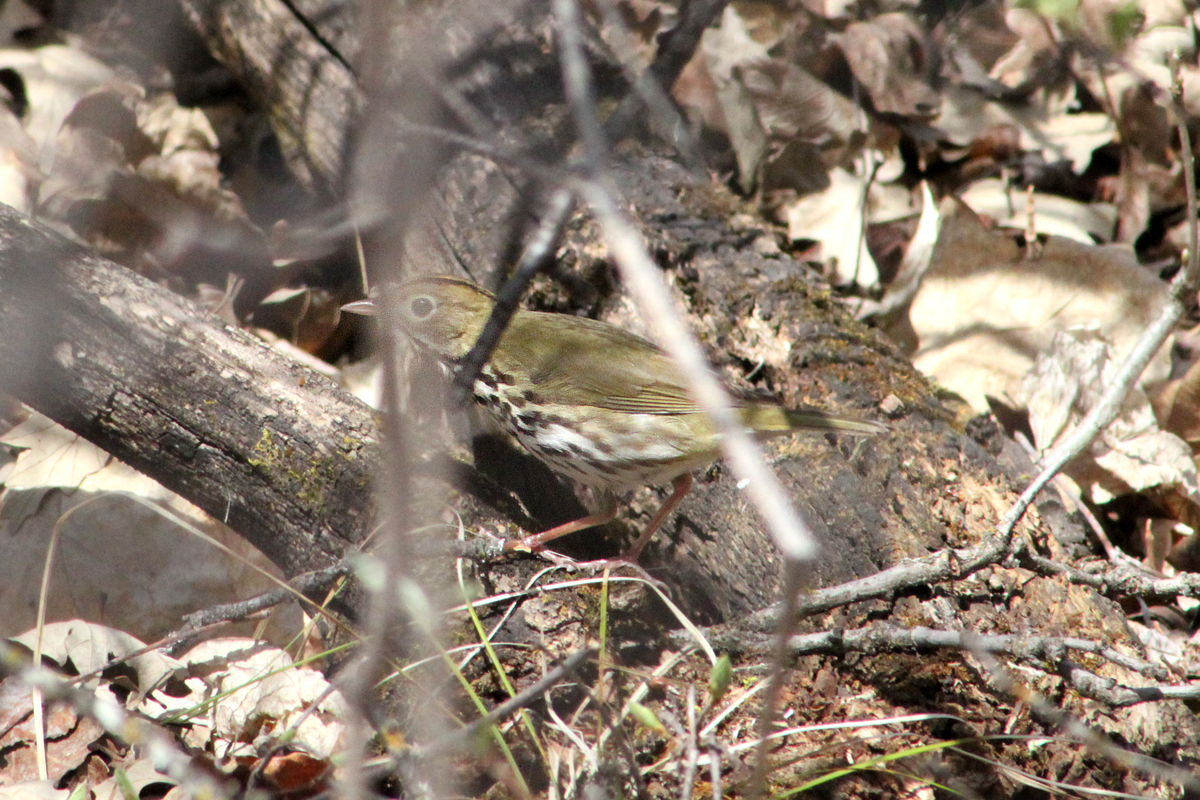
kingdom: Animalia
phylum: Chordata
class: Aves
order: Passeriformes
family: Parulidae
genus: Seiurus
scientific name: Seiurus aurocapilla
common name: Ovenbird
